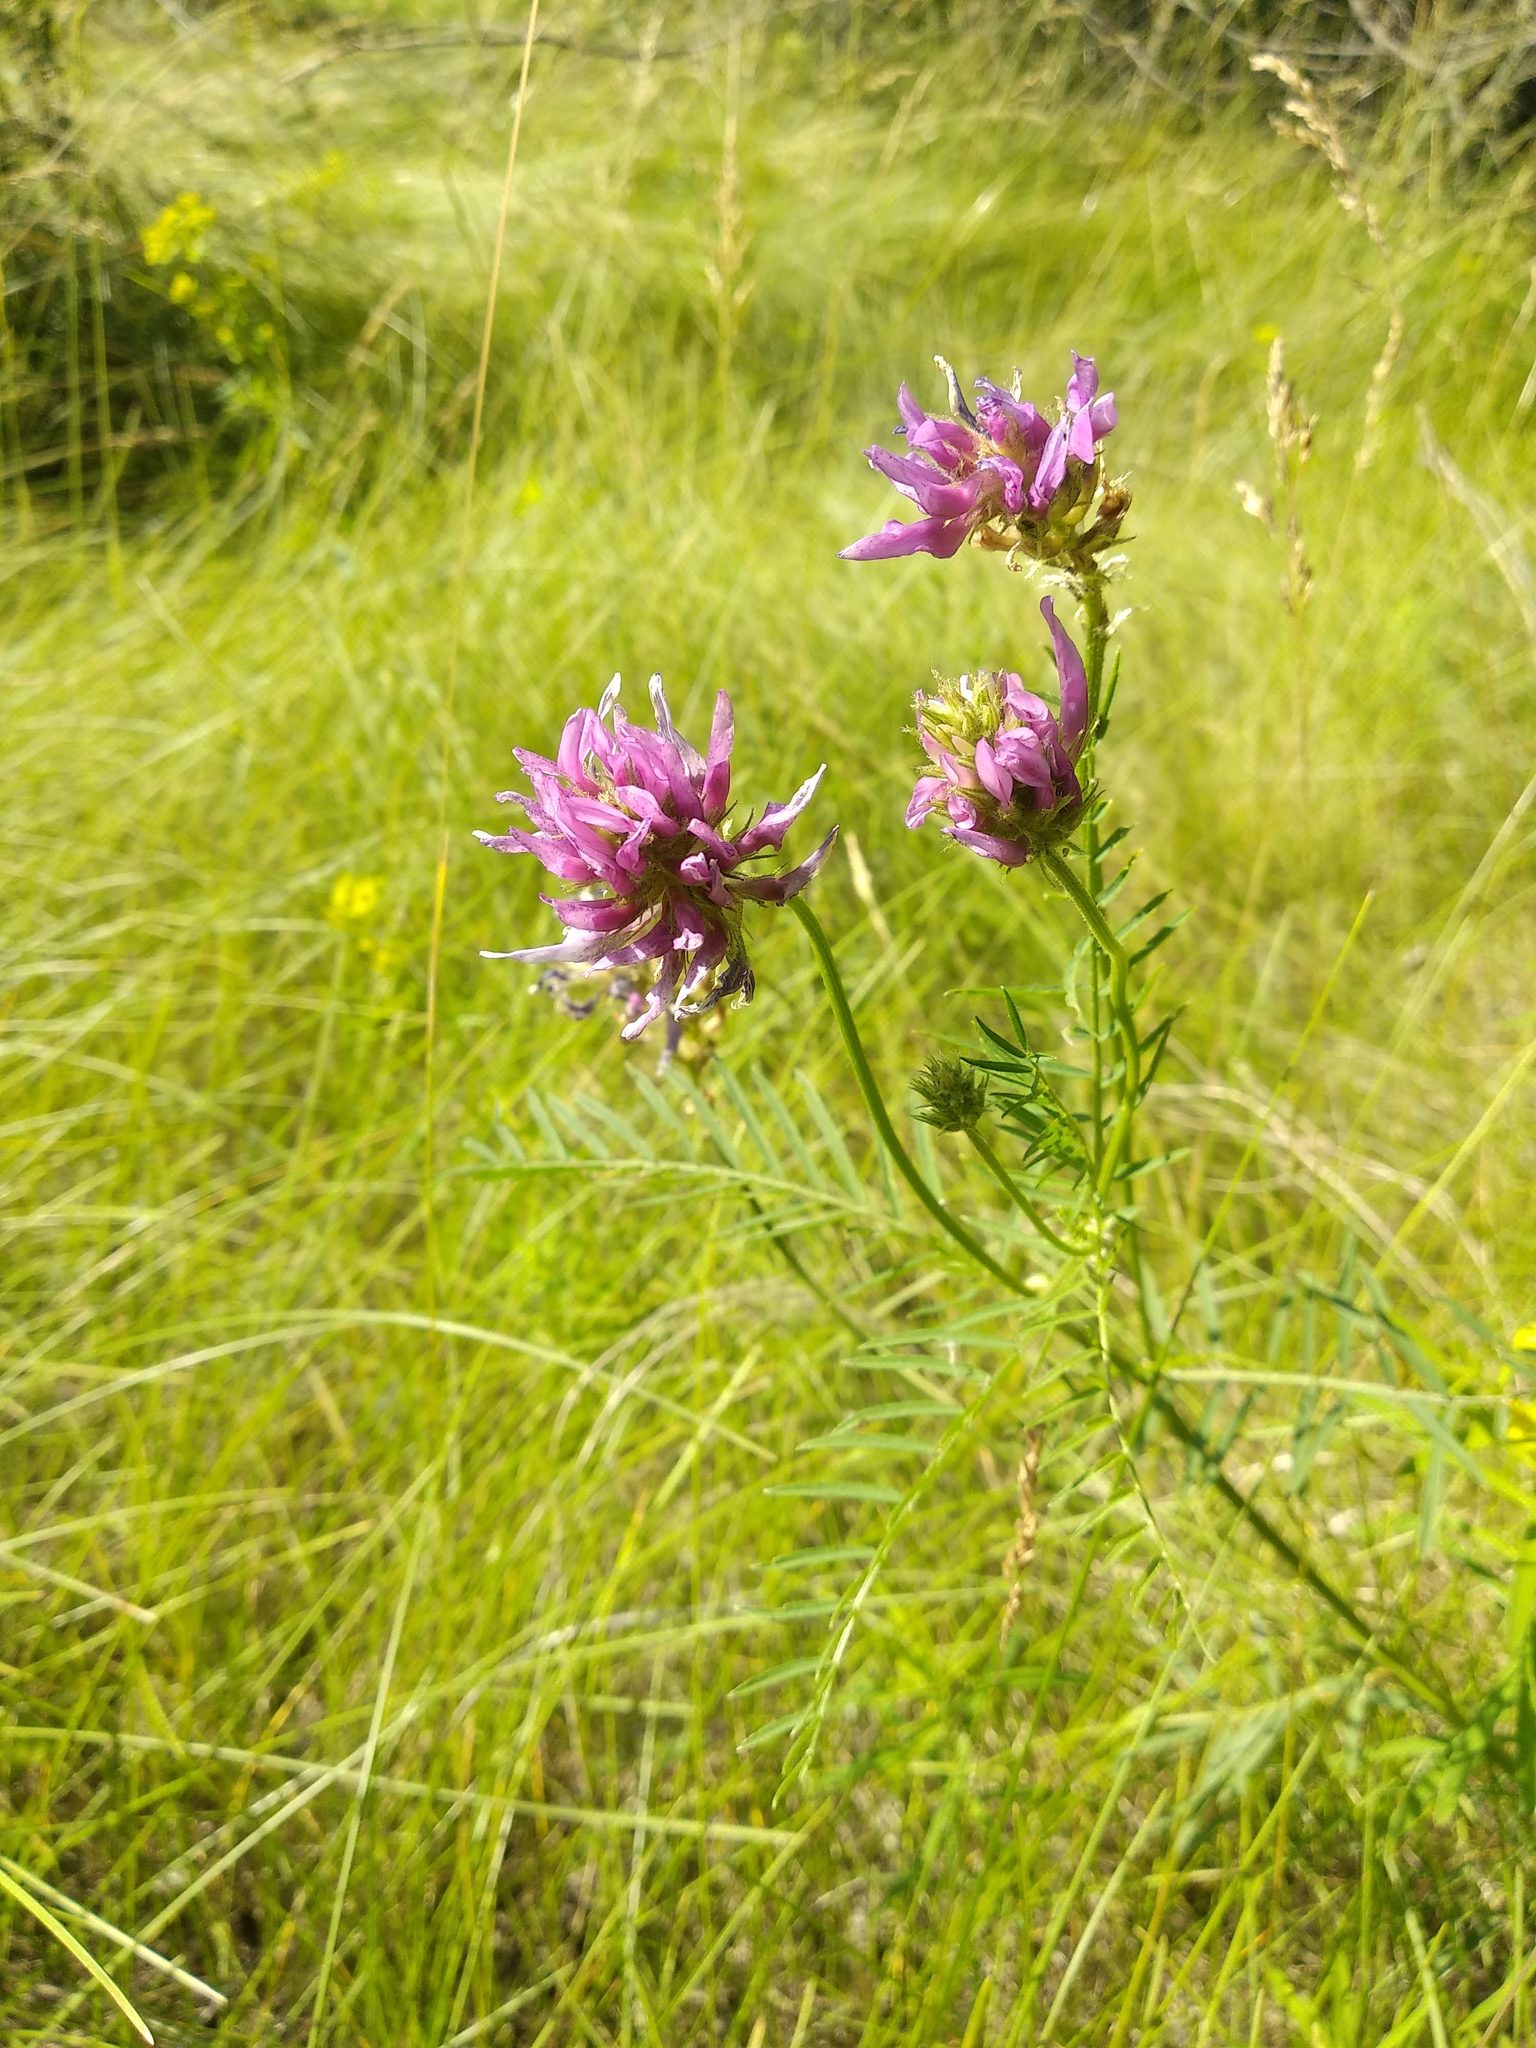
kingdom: Plantae
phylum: Tracheophyta
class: Magnoliopsida
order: Fabales
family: Fabaceae
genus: Astragalus
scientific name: Astragalus onobrychis
